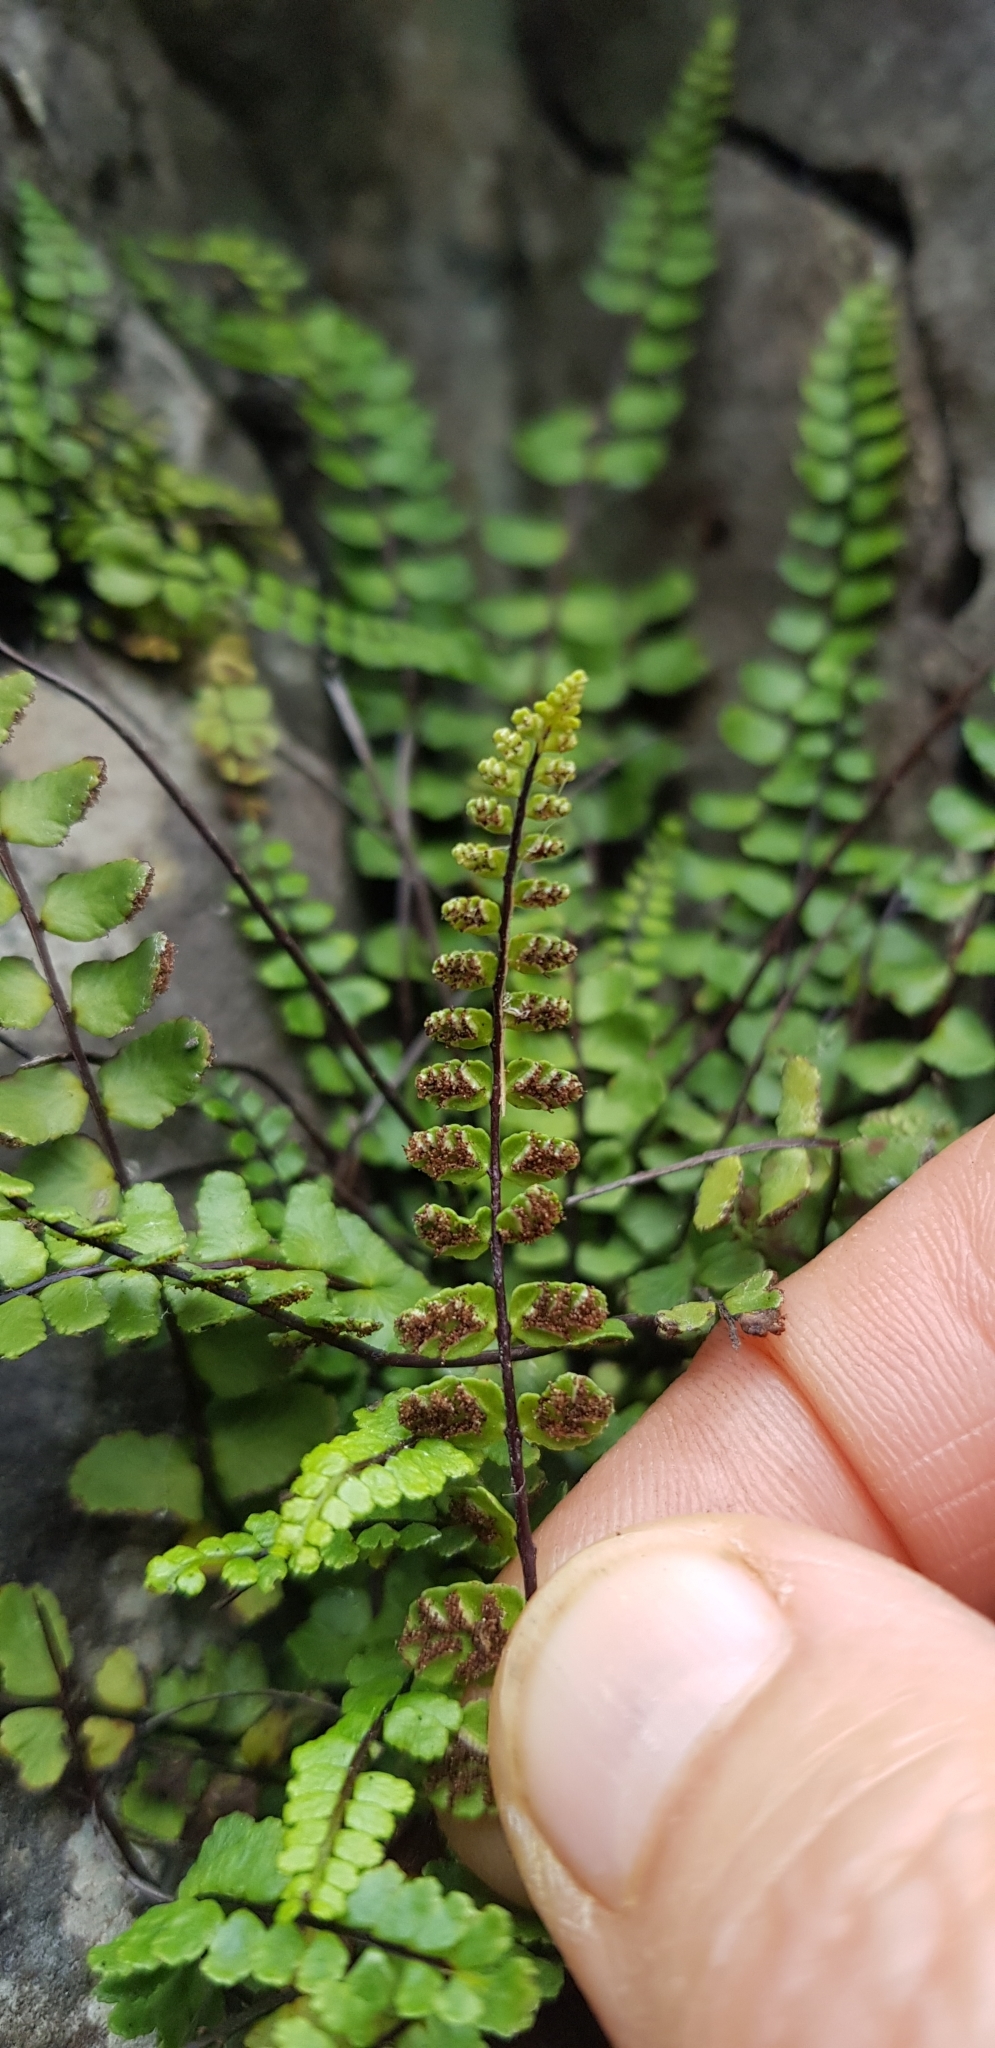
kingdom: Plantae
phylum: Tracheophyta
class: Polypodiopsida
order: Polypodiales
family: Aspleniaceae
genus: Asplenium
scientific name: Asplenium trichomanes
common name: Maidenhair spleenwort
